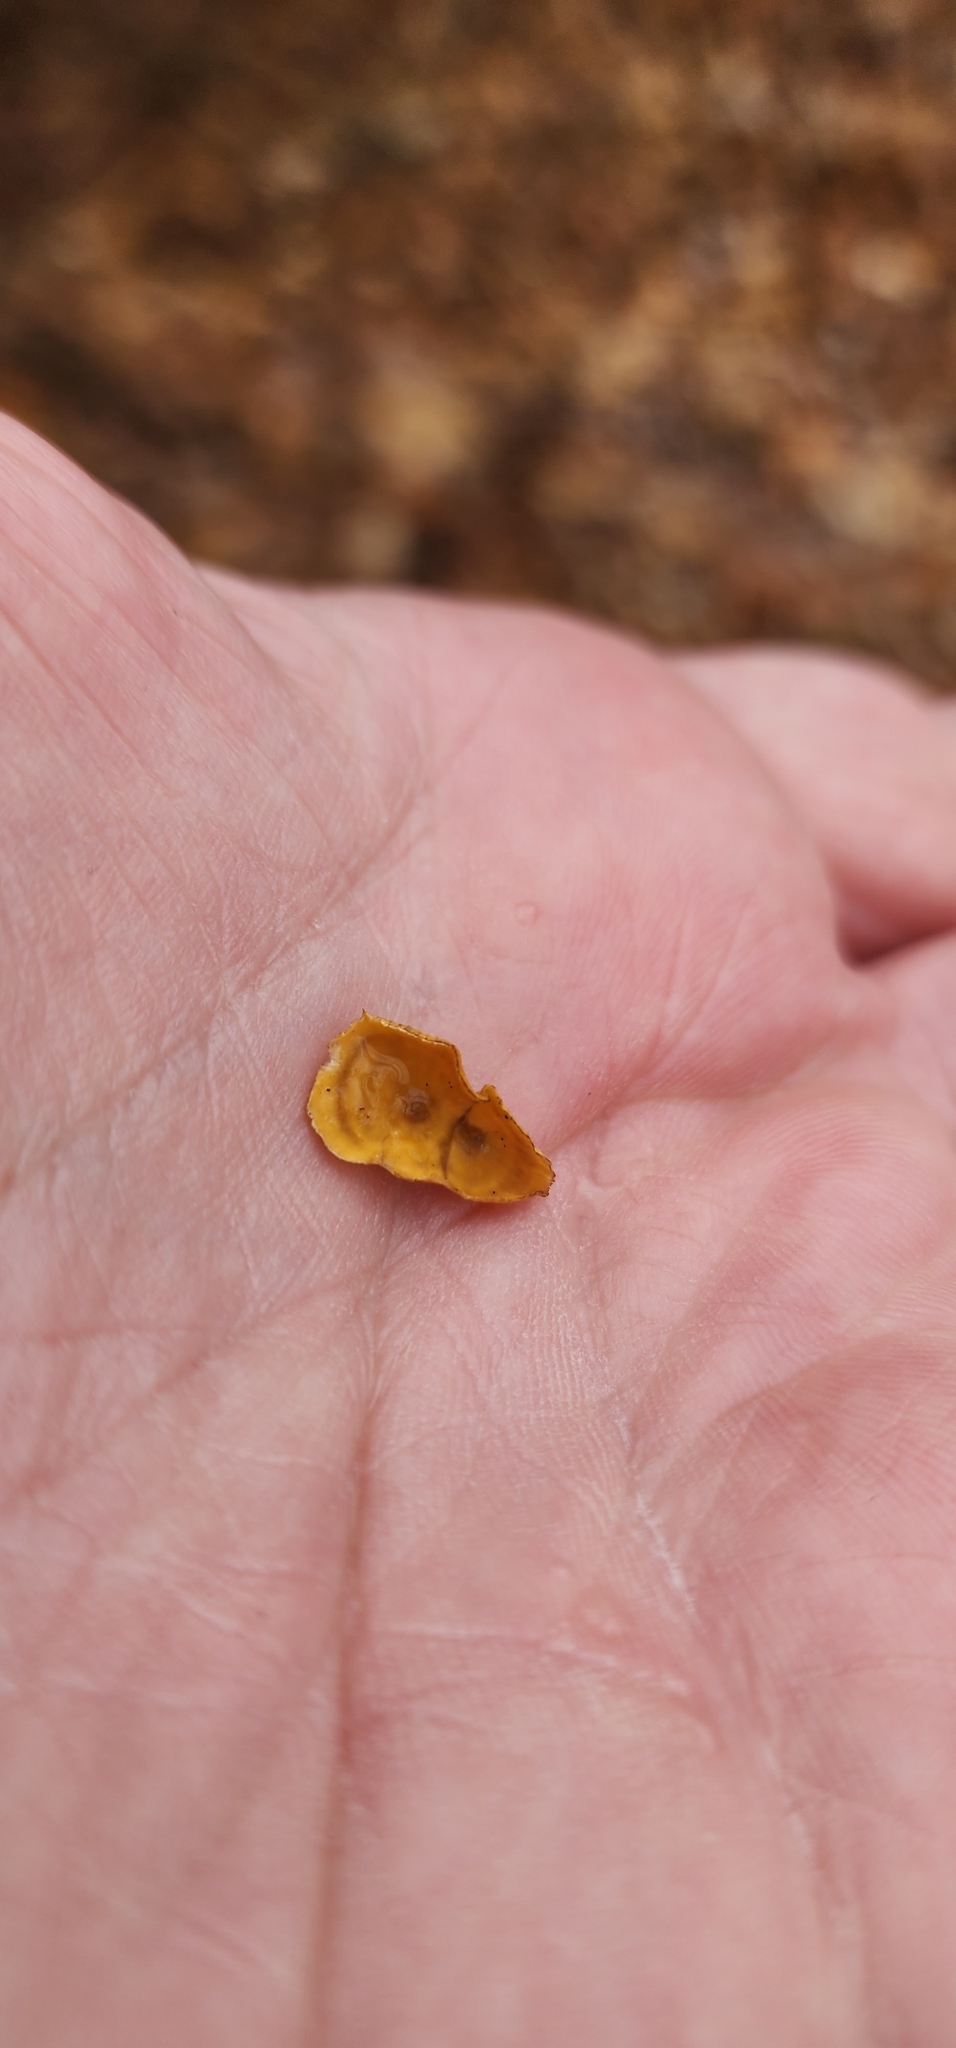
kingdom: Fungi
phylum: Basidiomycota
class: Agaricomycetes
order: Russulales
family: Stereaceae
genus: Stereum
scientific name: Stereum complicatum
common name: Crowded parchment
